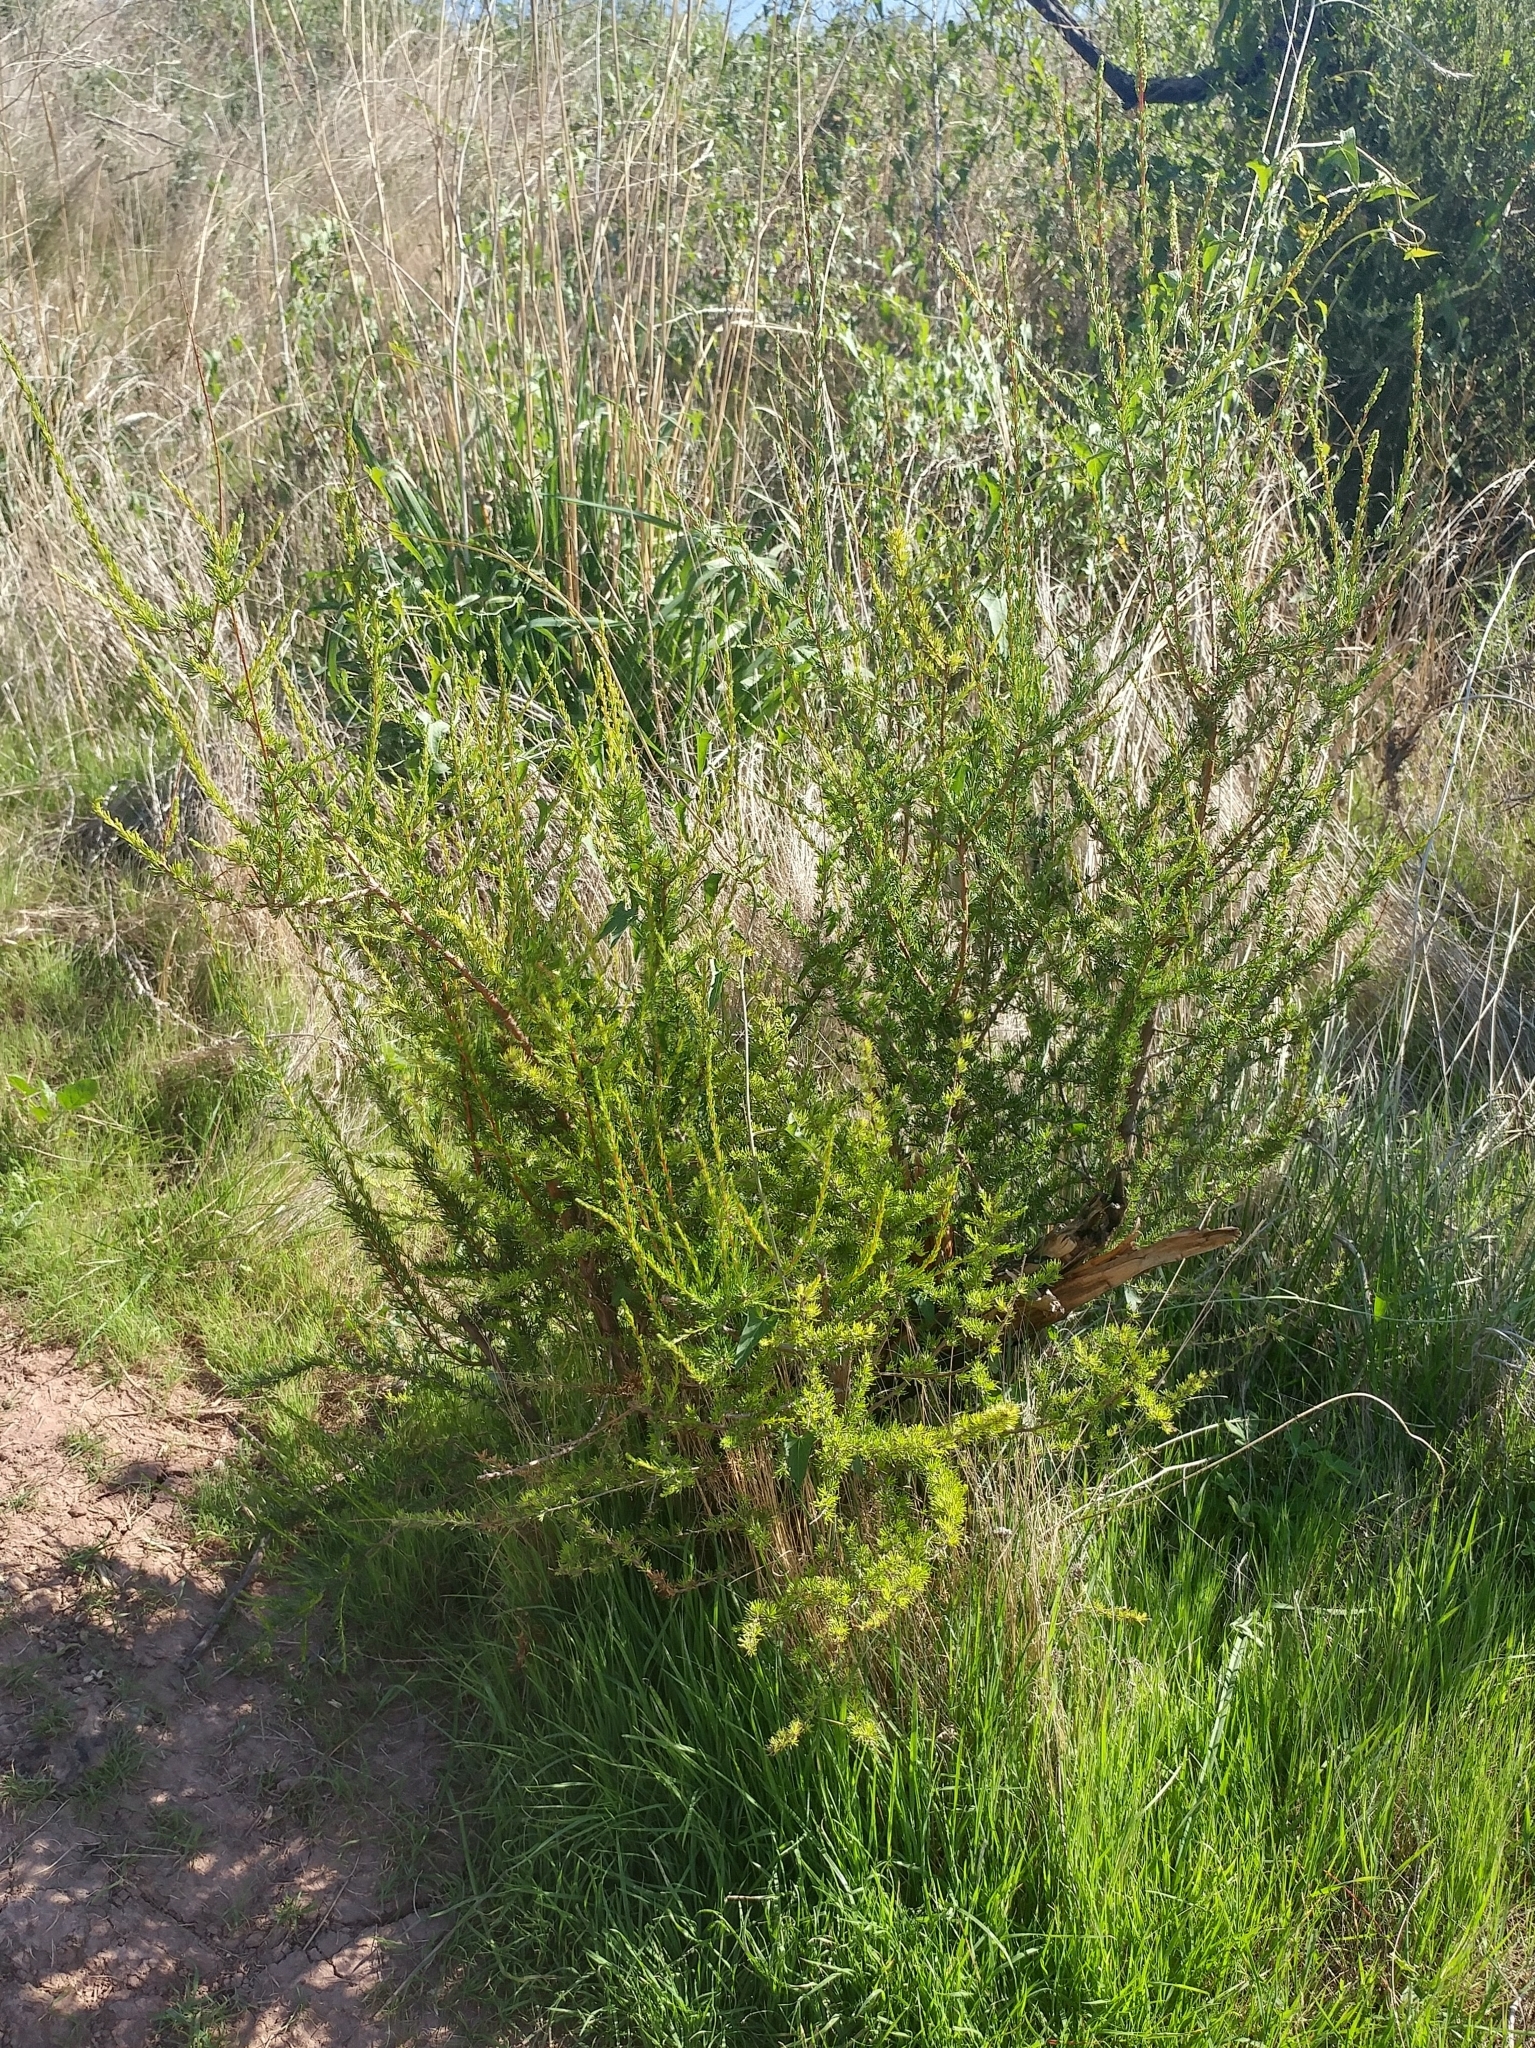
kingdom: Plantae
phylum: Tracheophyta
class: Magnoliopsida
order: Rosales
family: Rosaceae
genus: Adenostoma
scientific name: Adenostoma fasciculatum
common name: Chamise
